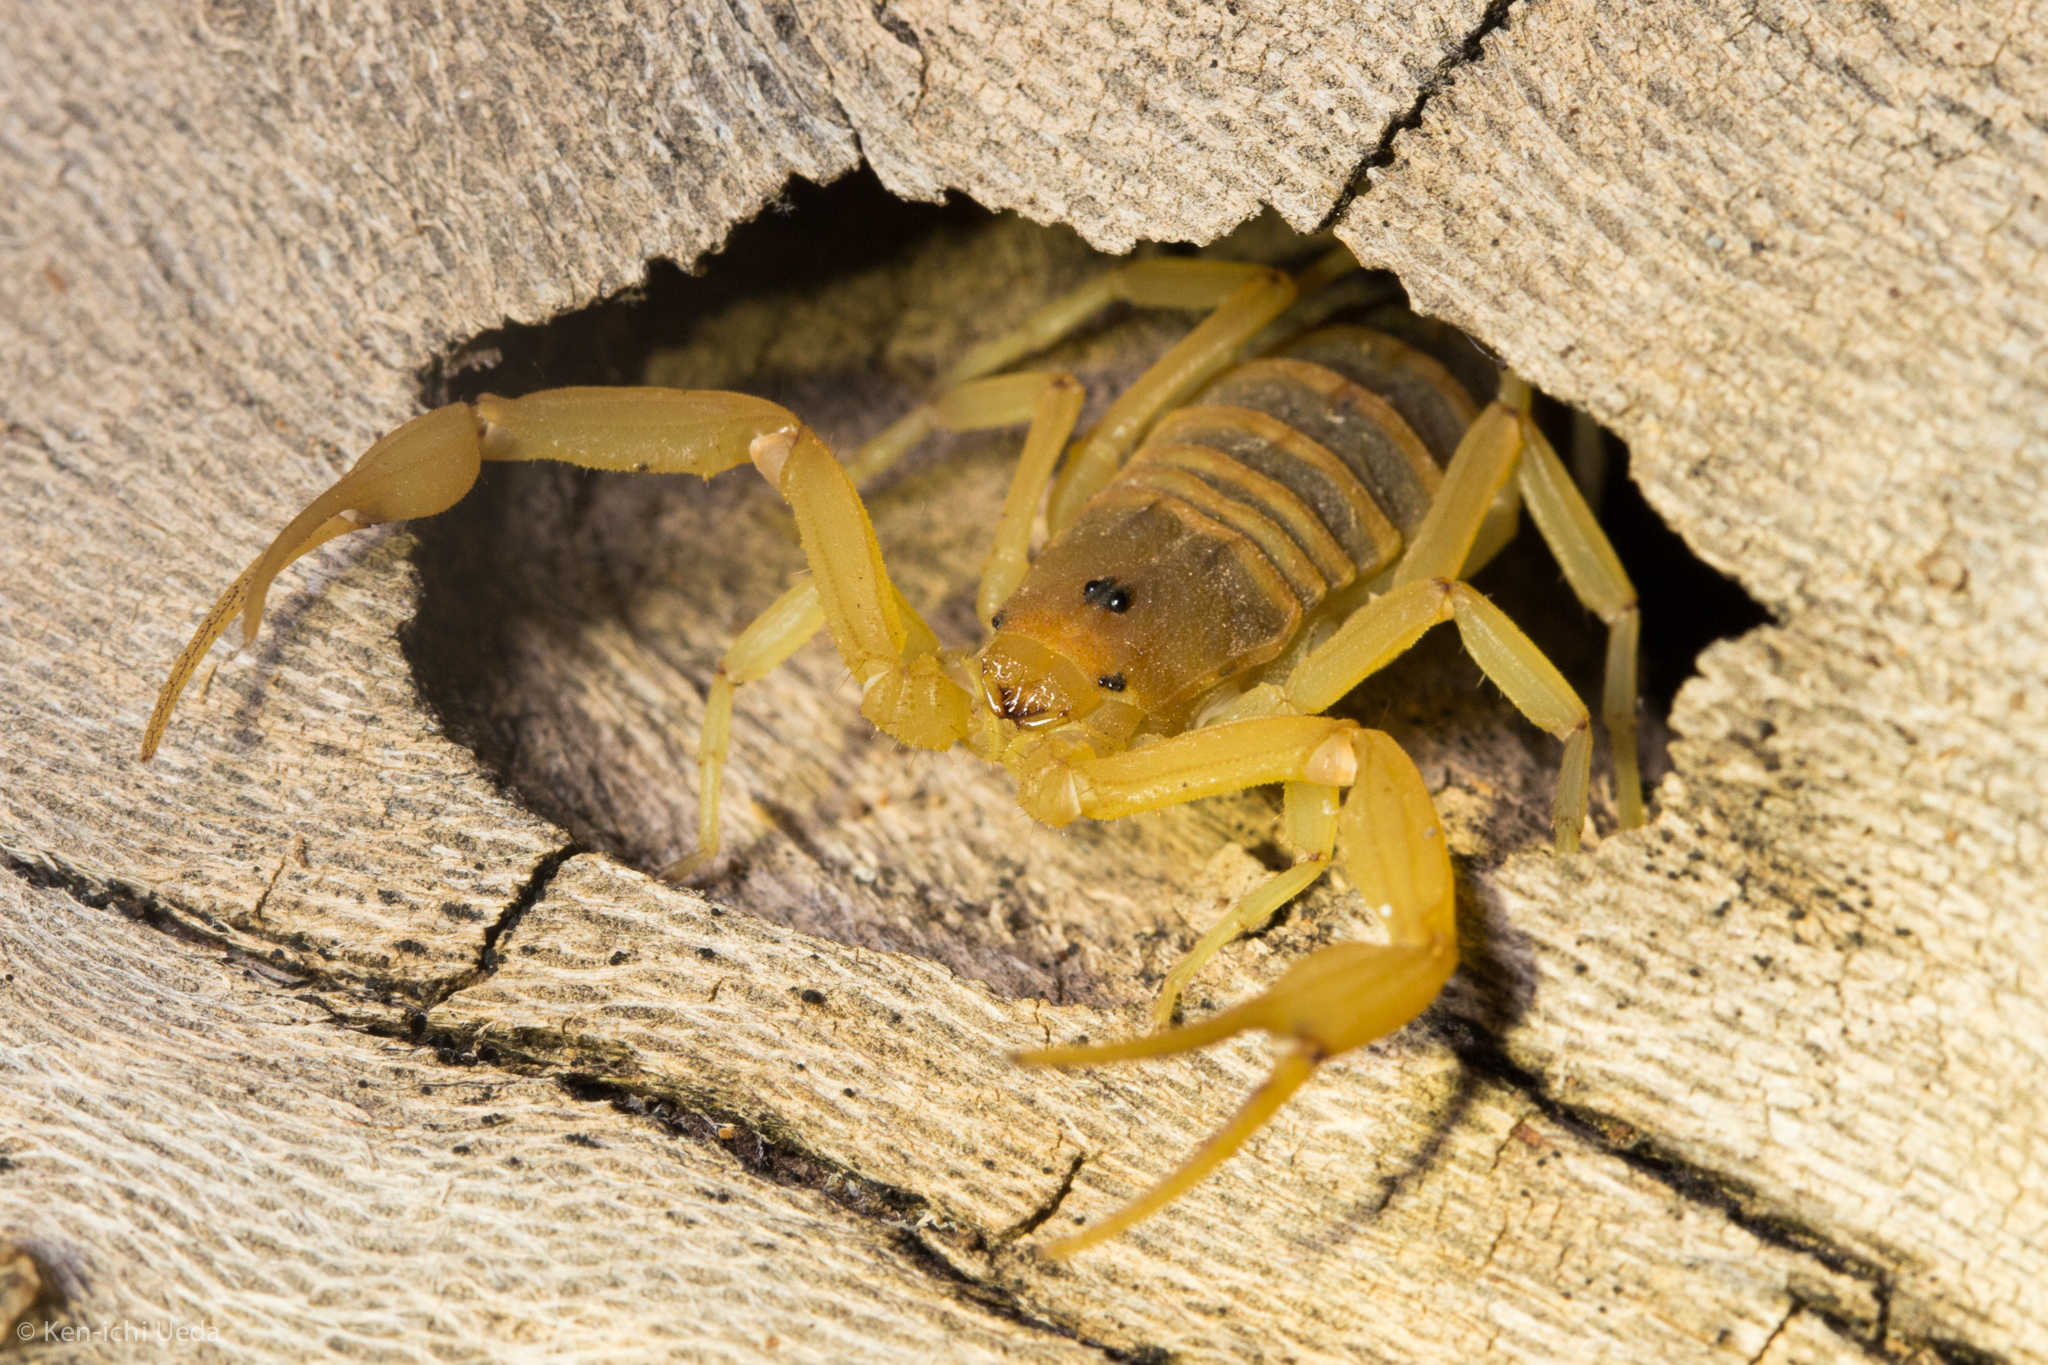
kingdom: Animalia
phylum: Arthropoda
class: Arachnida
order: Scorpiones
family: Buthidae
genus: Centruroides
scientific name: Centruroides sculpturatus
